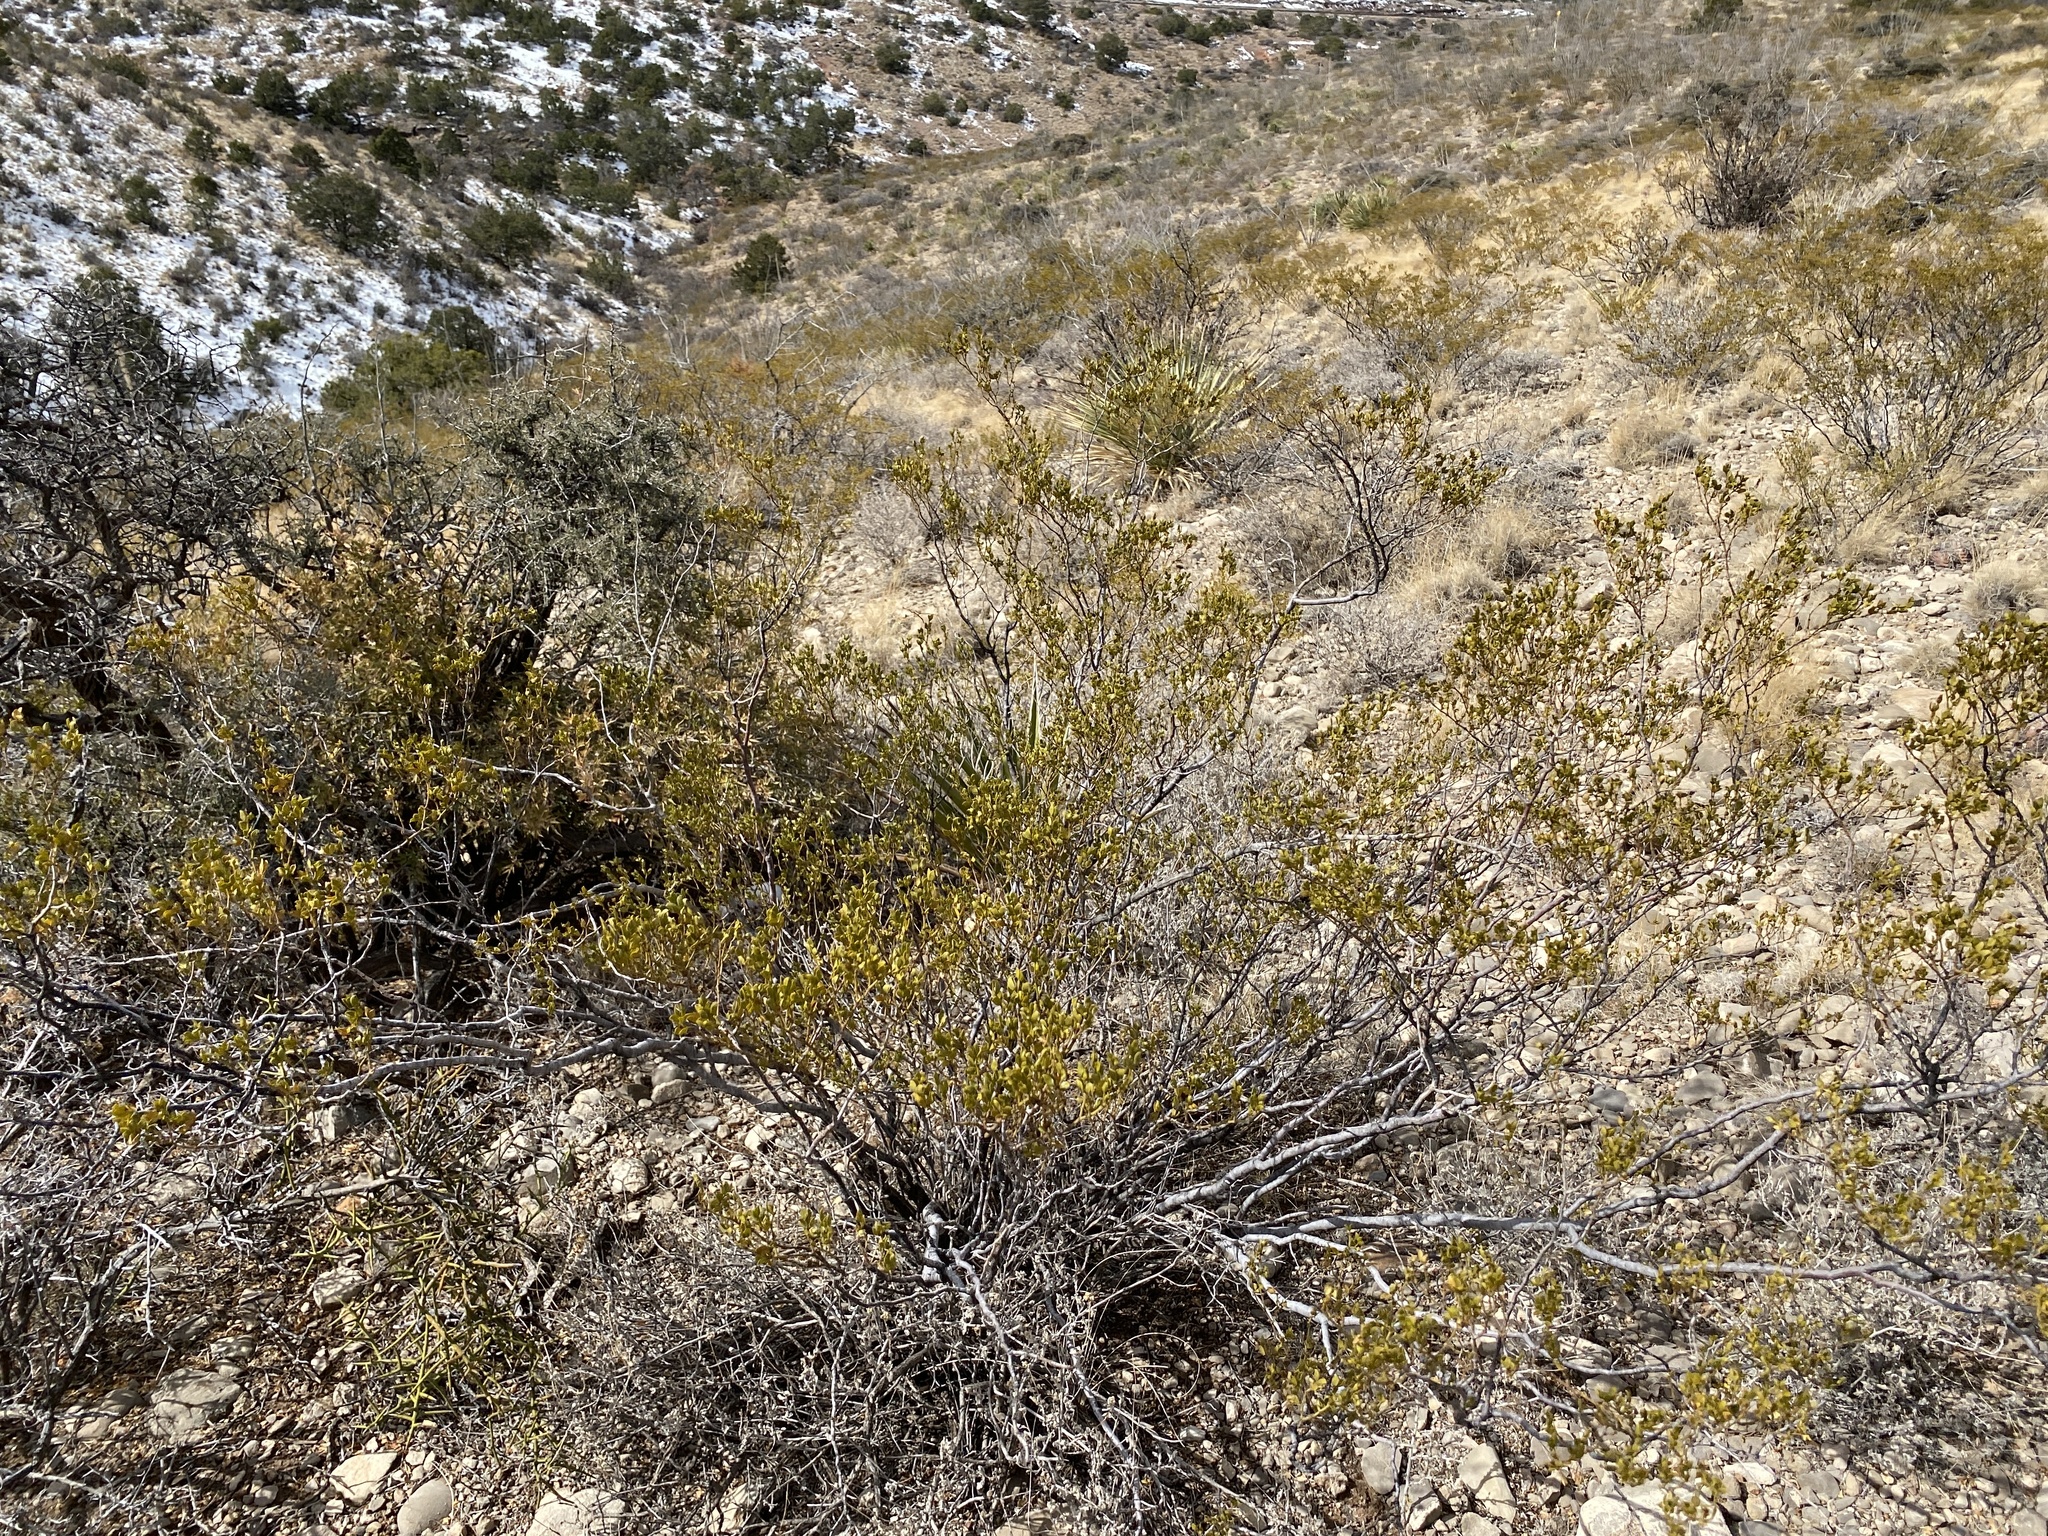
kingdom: Plantae
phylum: Tracheophyta
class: Magnoliopsida
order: Zygophyllales
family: Zygophyllaceae
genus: Larrea
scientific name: Larrea tridentata
